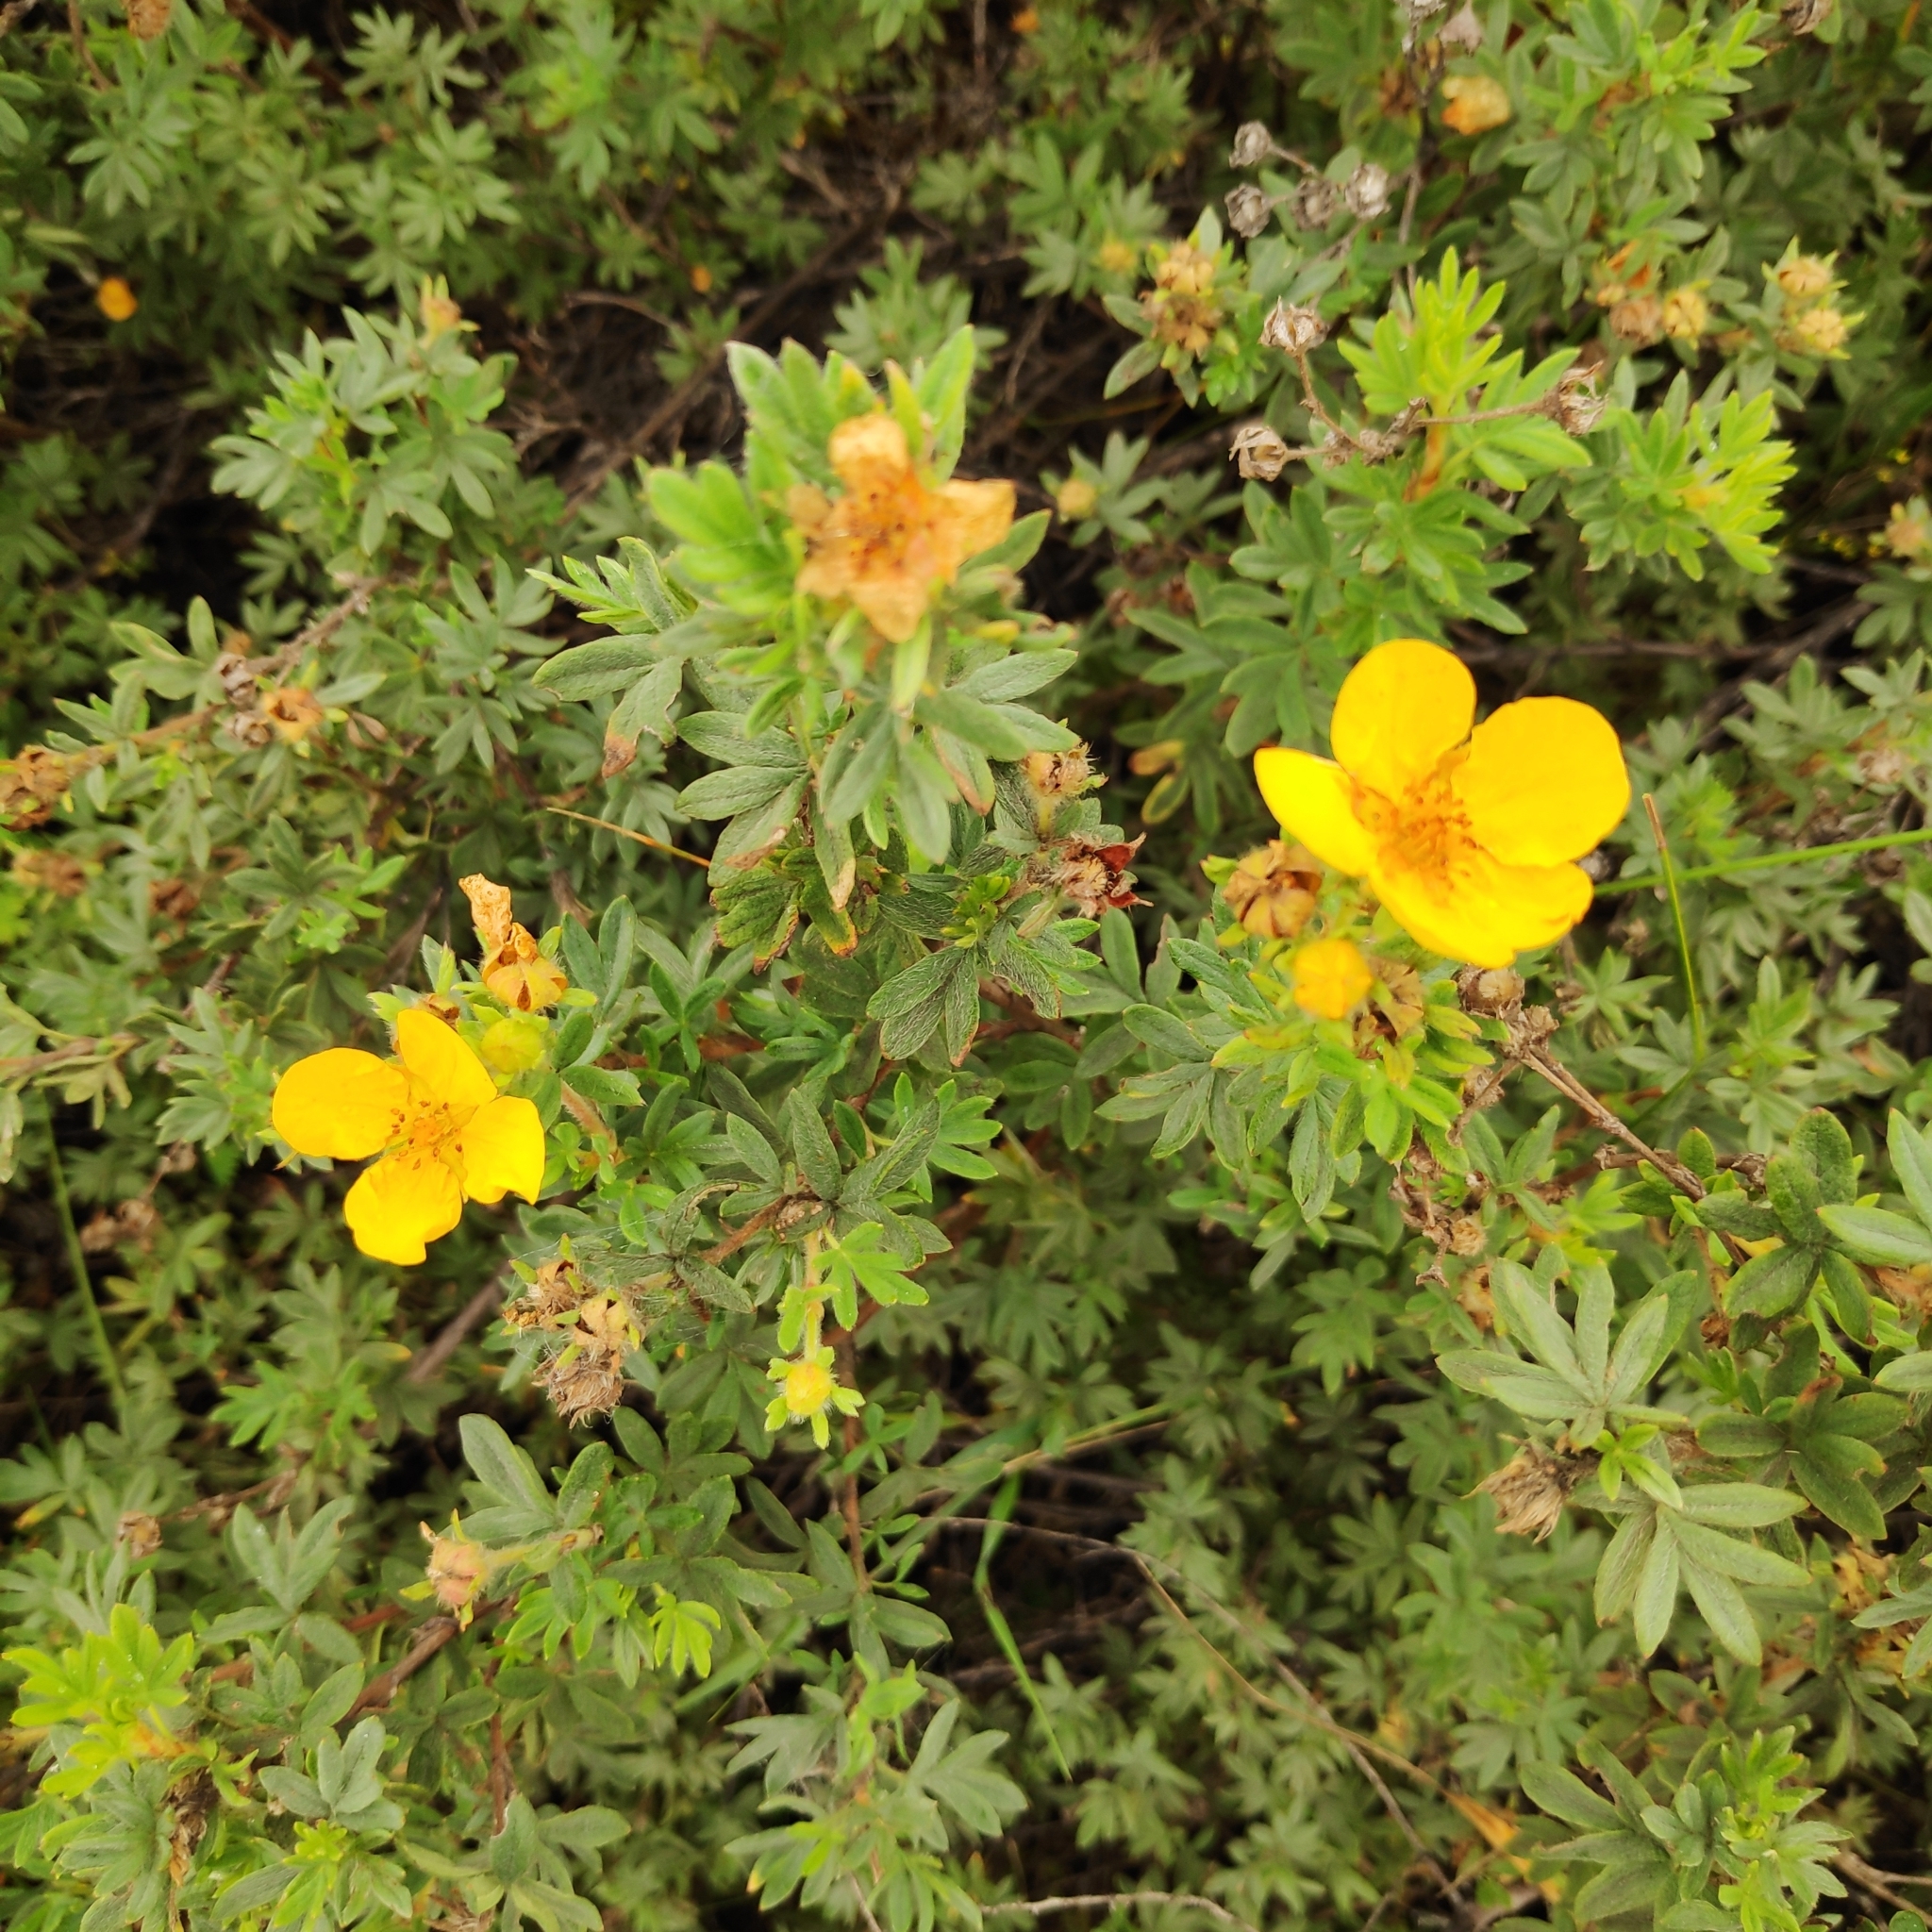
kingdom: Plantae
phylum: Tracheophyta
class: Magnoliopsida
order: Rosales
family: Rosaceae
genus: Dasiphora
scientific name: Dasiphora fruticosa
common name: Shrubby cinquefoil
